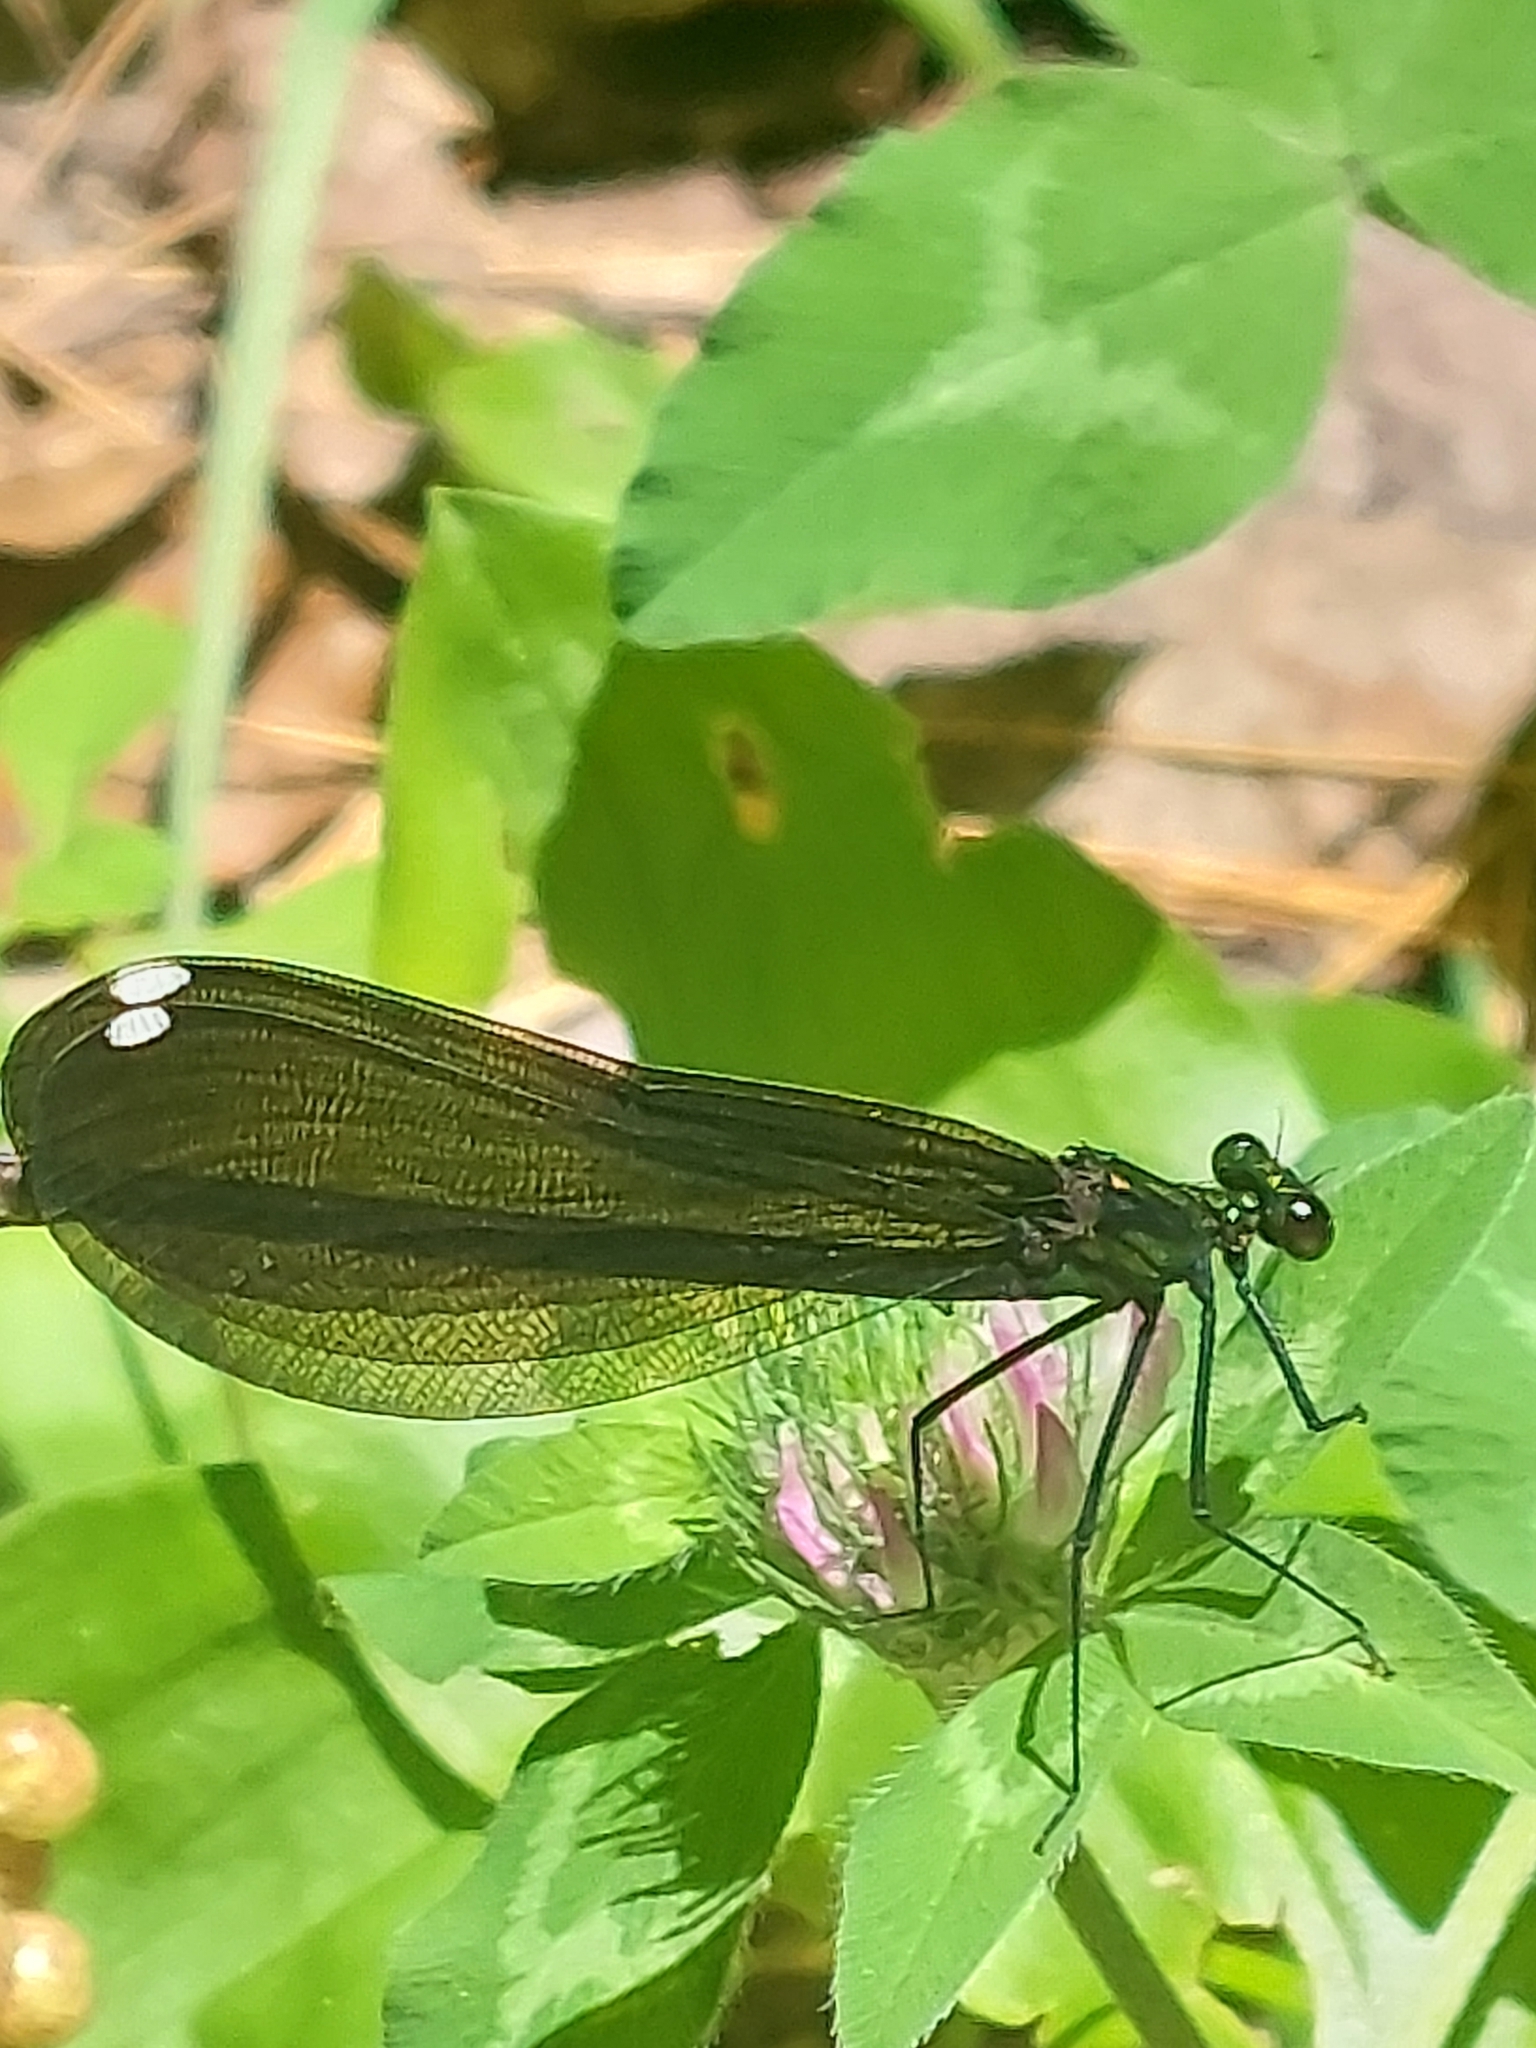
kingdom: Animalia
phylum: Arthropoda
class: Insecta
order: Odonata
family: Calopterygidae
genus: Calopteryx
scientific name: Calopteryx maculata
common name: Ebony jewelwing
